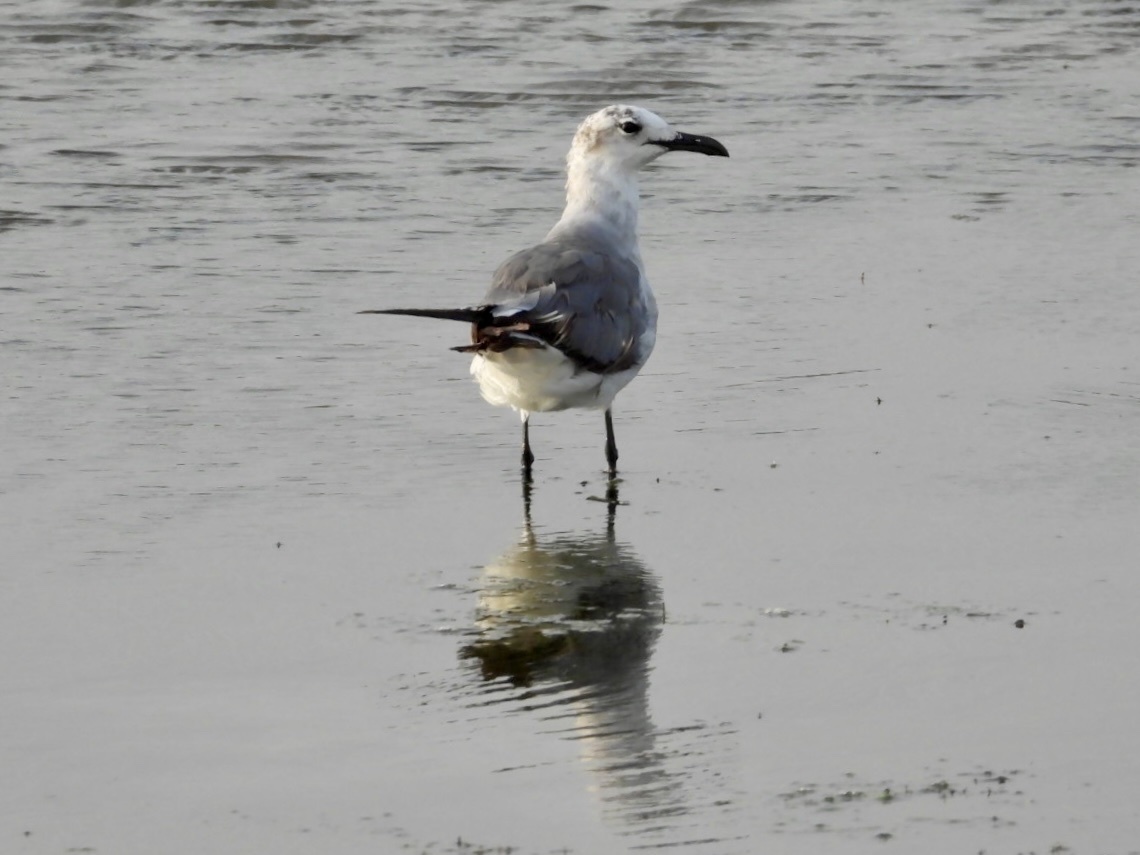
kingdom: Animalia
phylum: Chordata
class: Aves
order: Charadriiformes
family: Laridae
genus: Leucophaeus
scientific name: Leucophaeus atricilla
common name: Laughing gull
